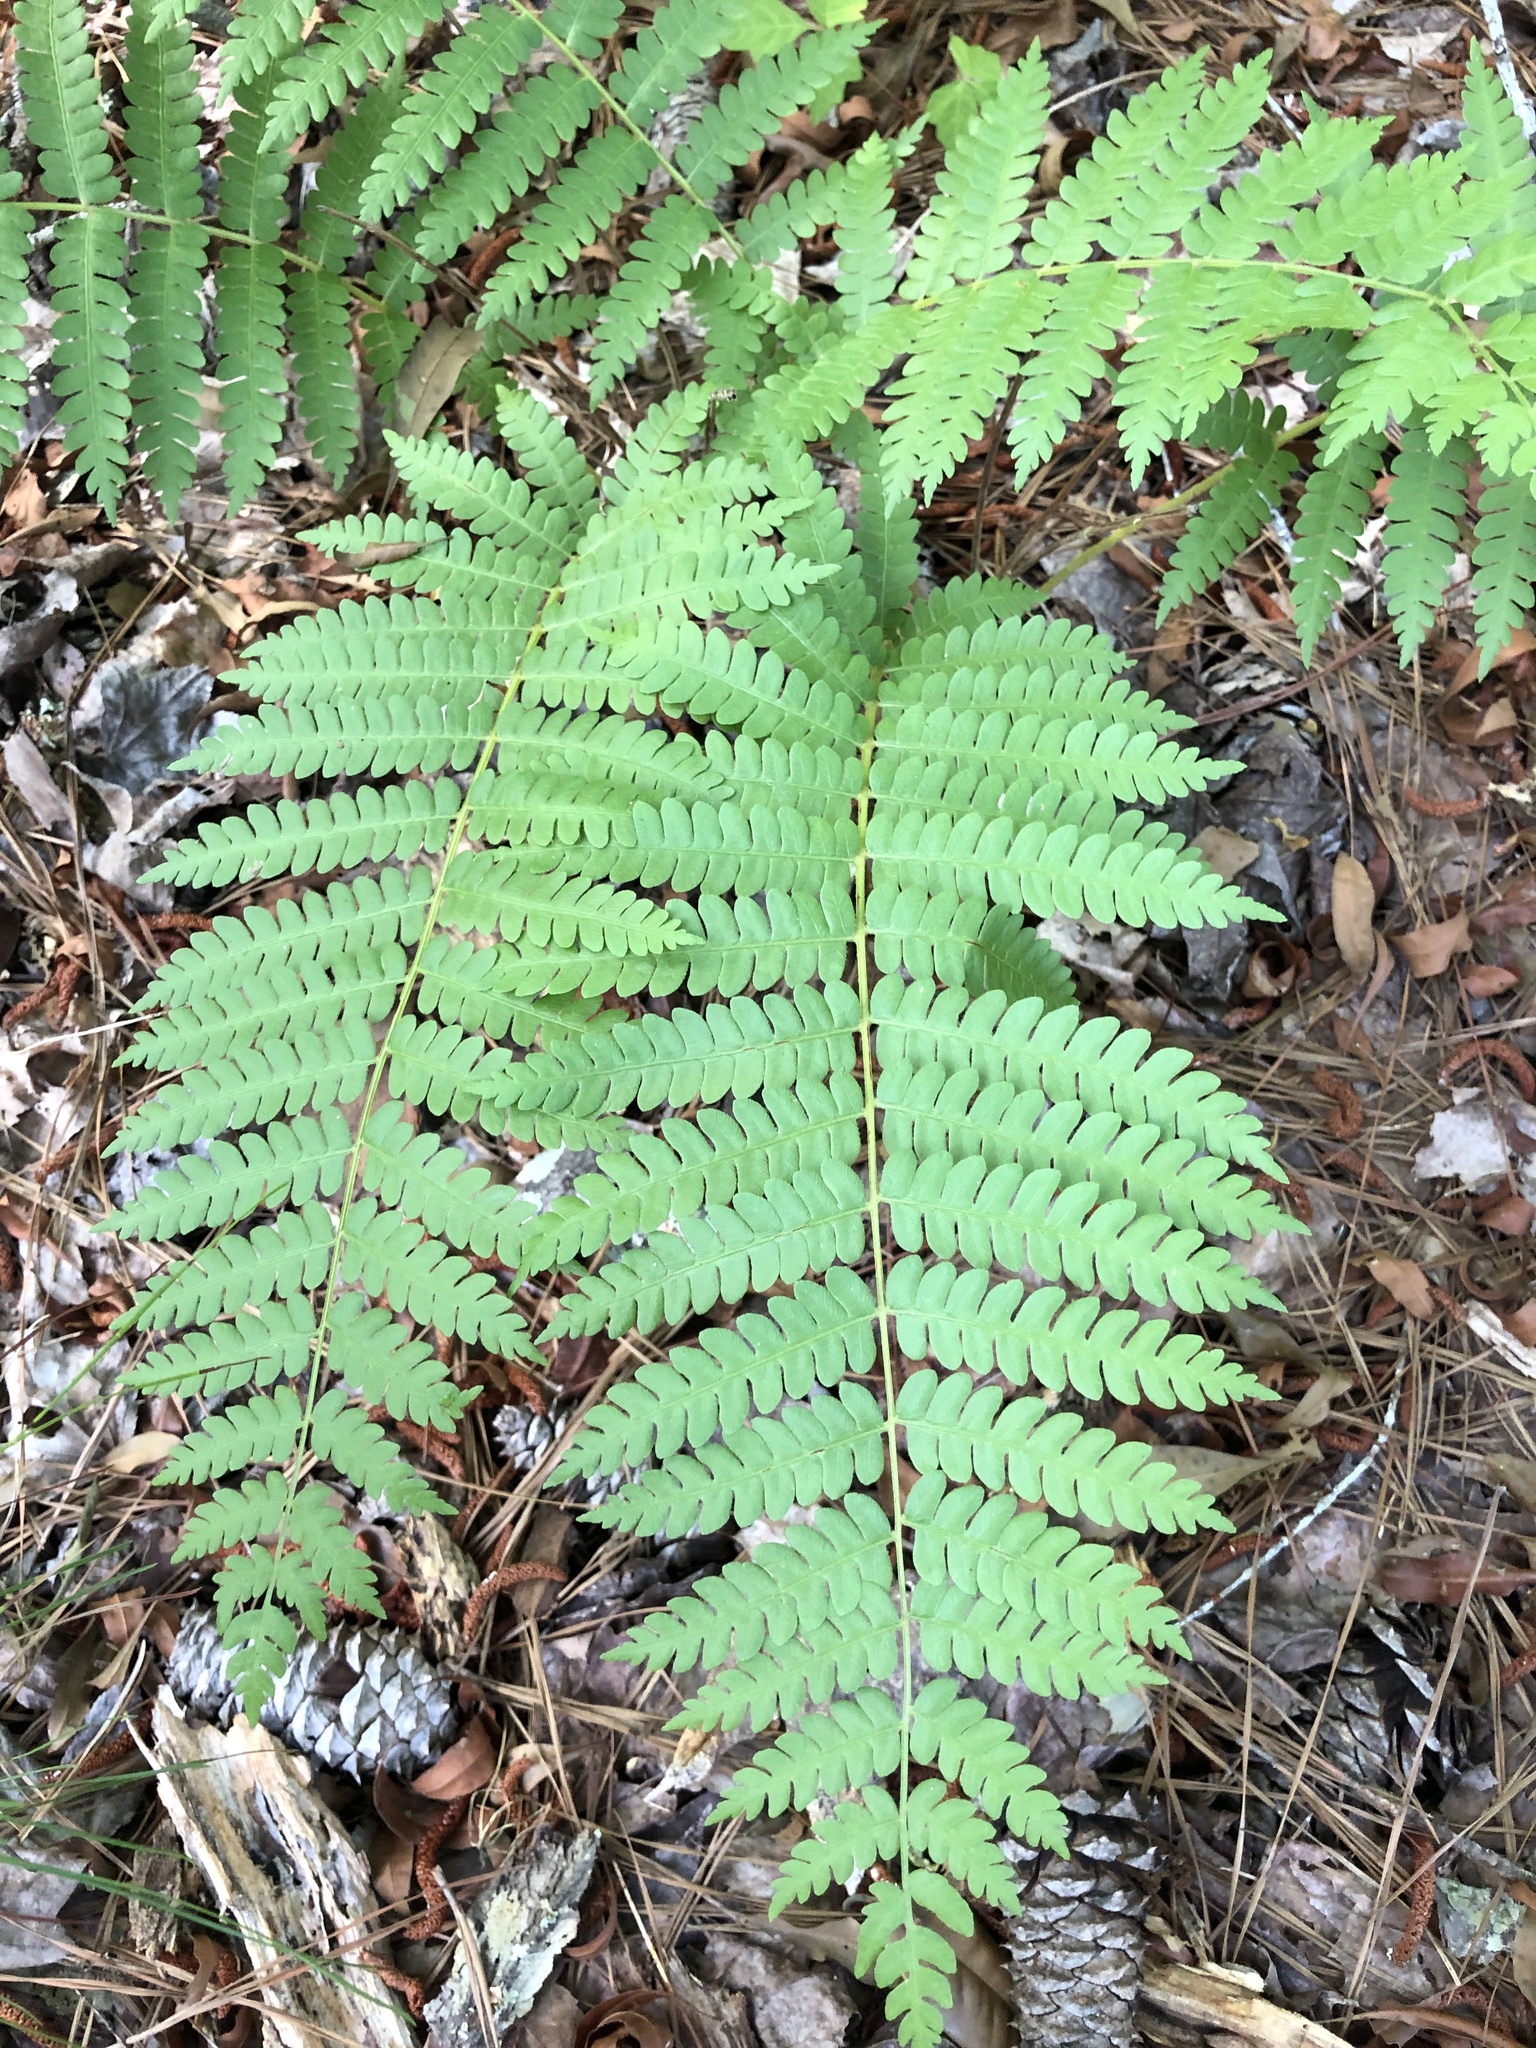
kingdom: Plantae
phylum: Tracheophyta
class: Polypodiopsida
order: Osmundales
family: Osmundaceae
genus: Osmundastrum
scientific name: Osmundastrum cinnamomeum
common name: Cinnamon fern
